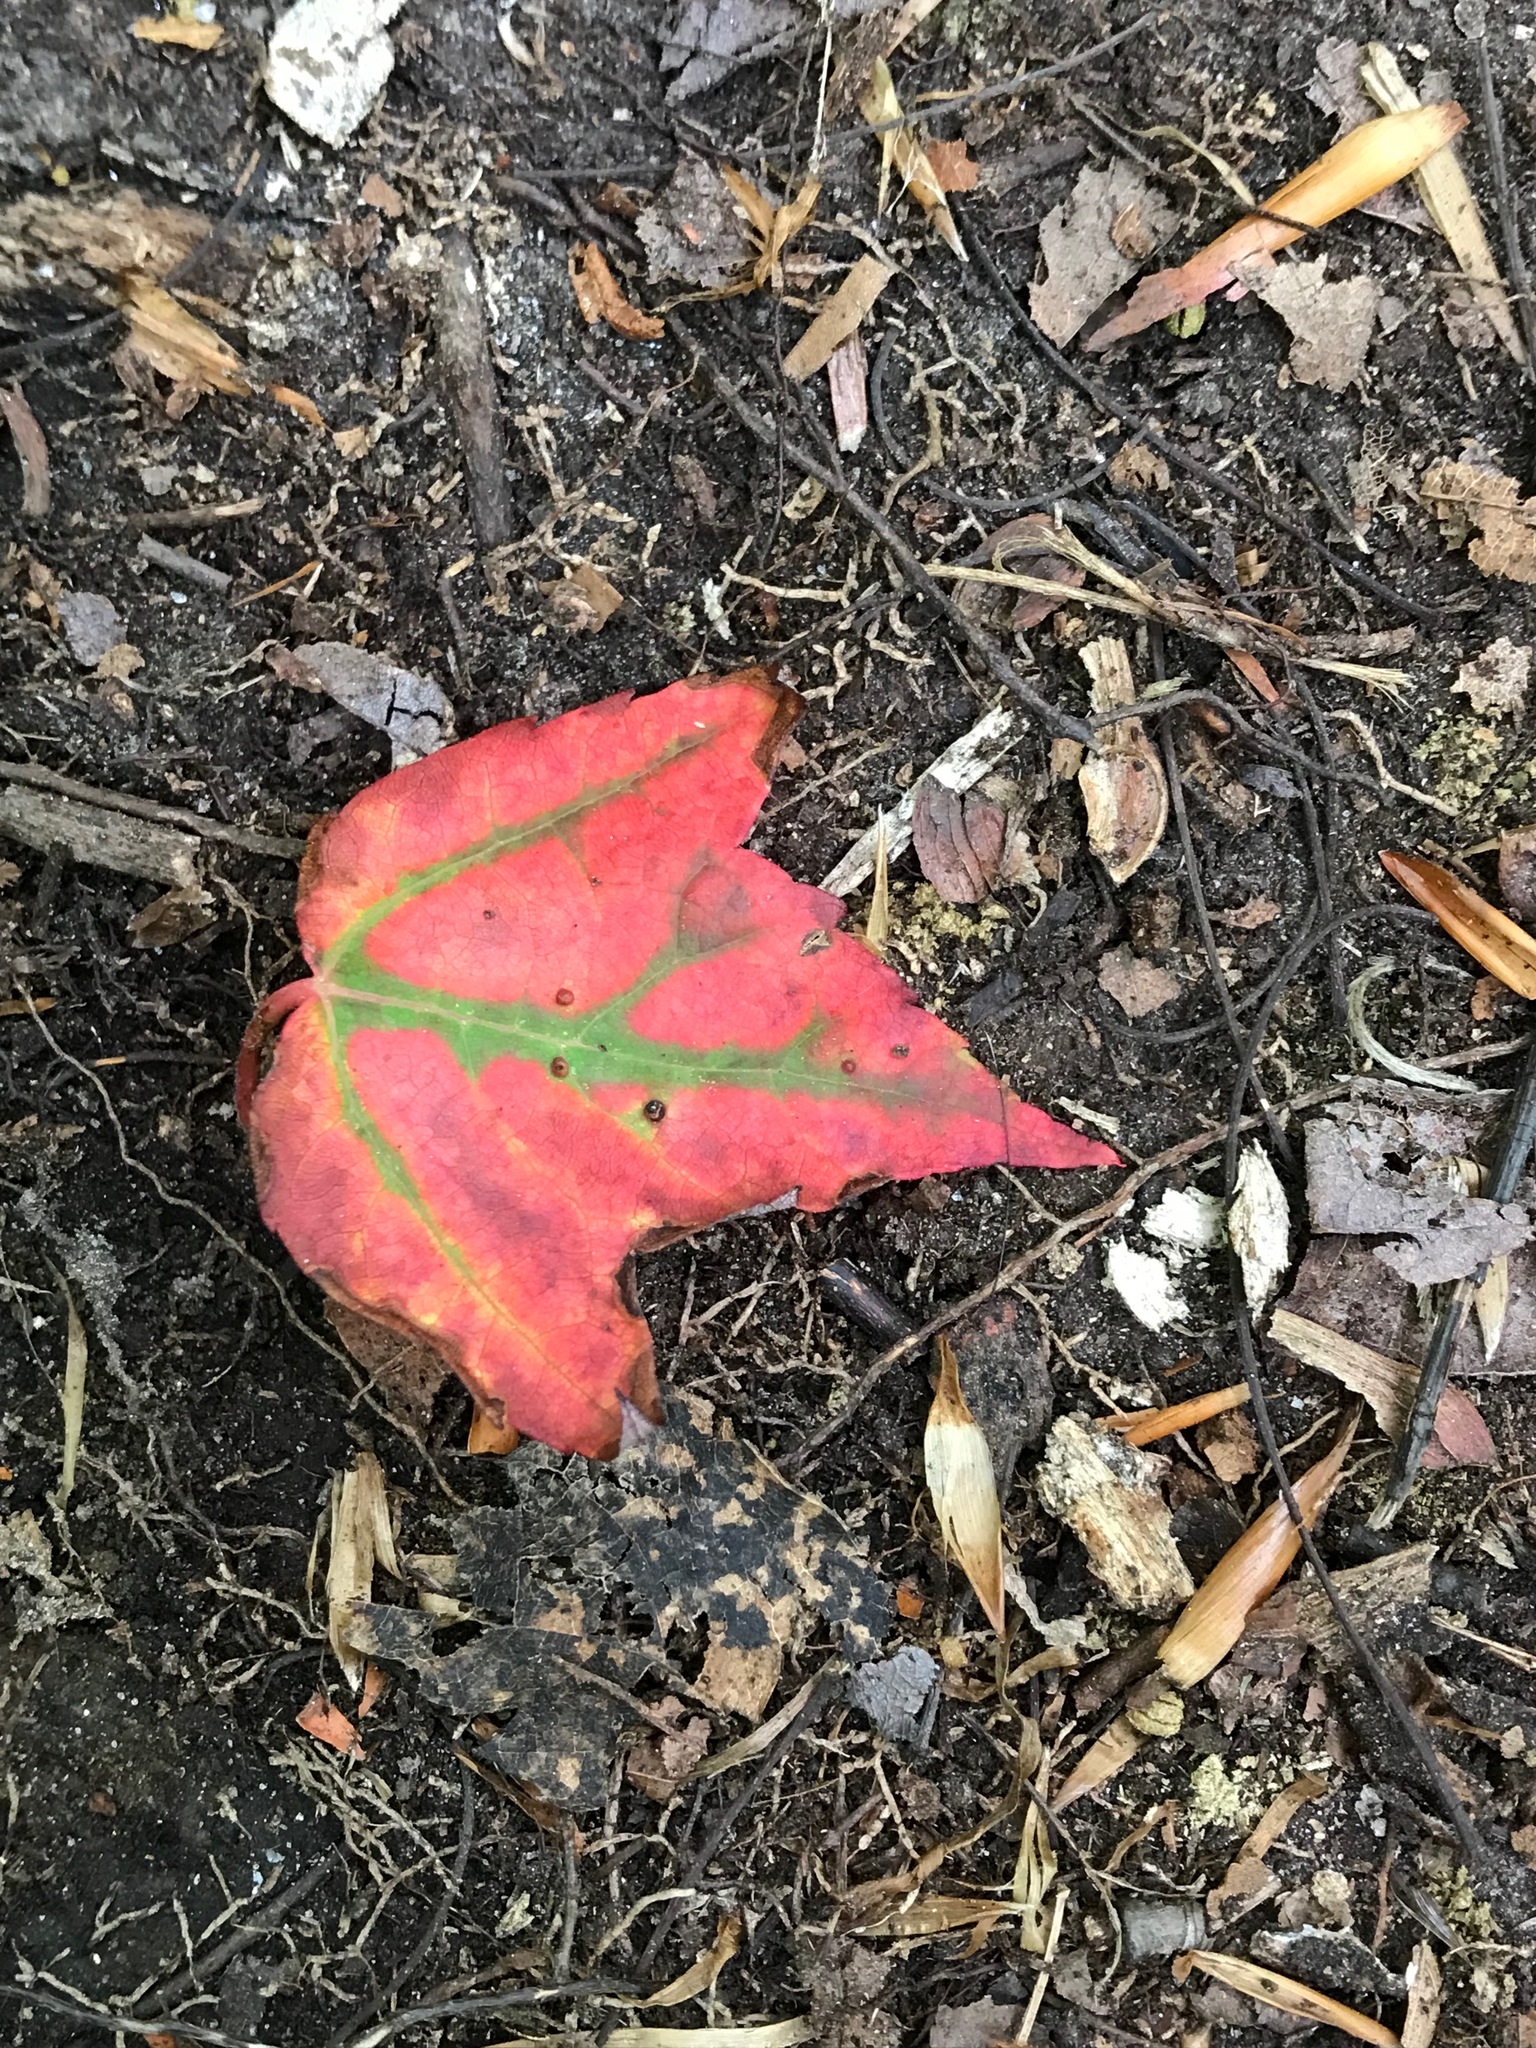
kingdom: Plantae
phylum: Tracheophyta
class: Magnoliopsida
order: Sapindales
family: Sapindaceae
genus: Acer
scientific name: Acer rubrum
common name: Red maple
